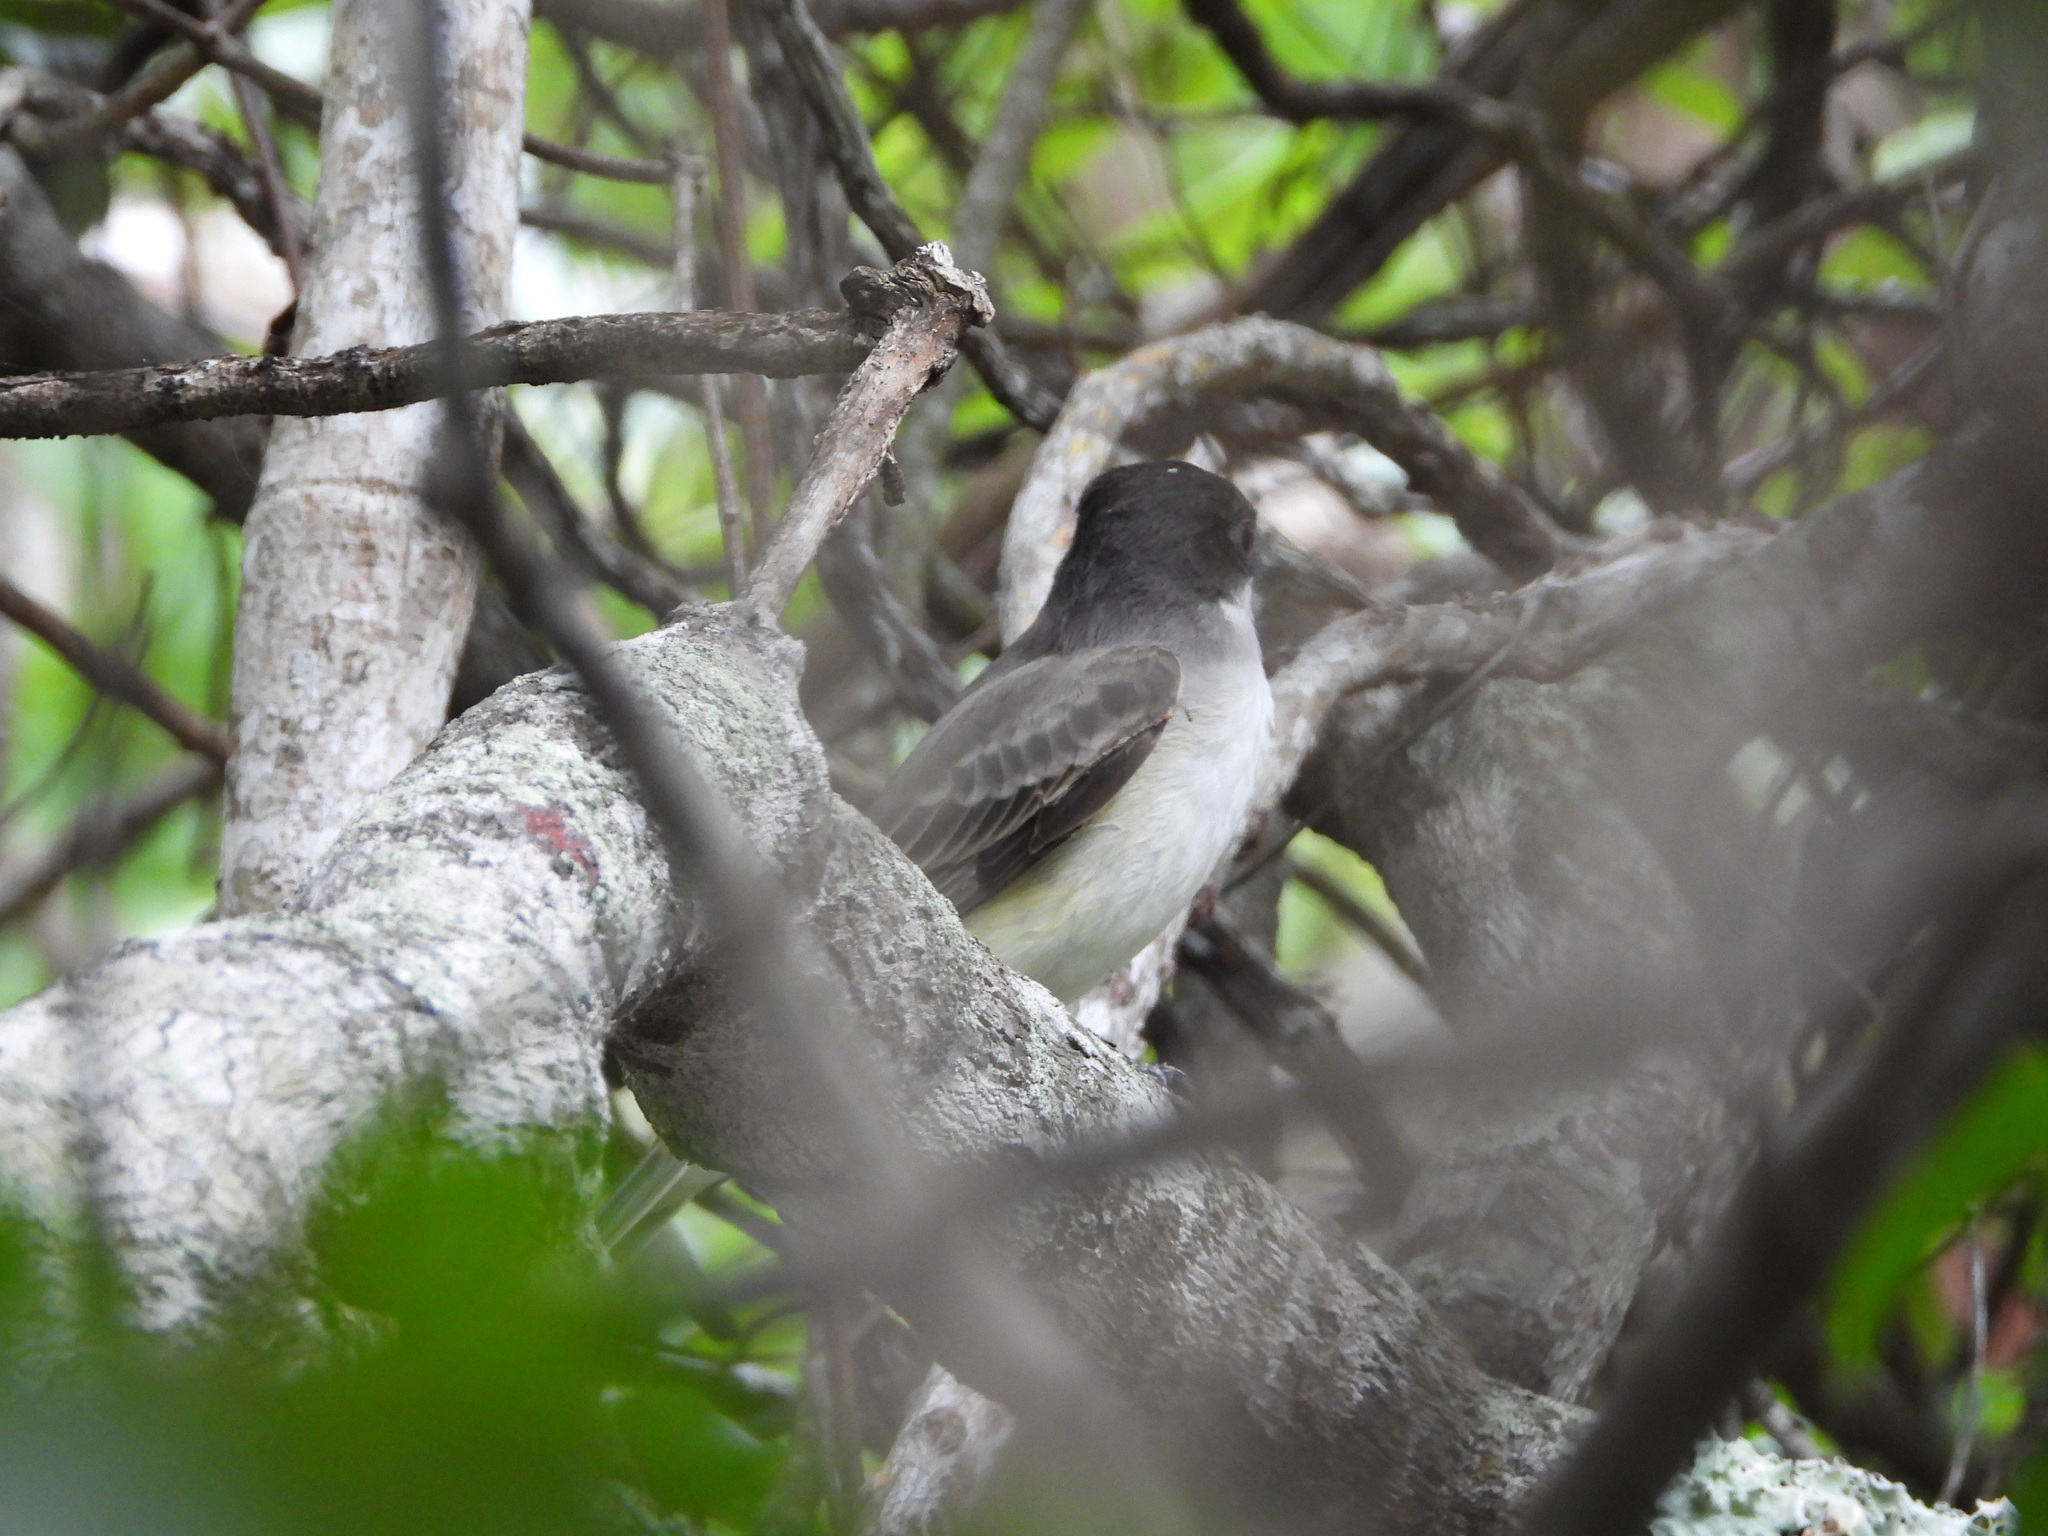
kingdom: Animalia
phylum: Chordata
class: Aves
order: Passeriformes
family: Tyrannidae
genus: Tyrannus
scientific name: Tyrannus caudifasciatus
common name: Loggerhead kingbird
